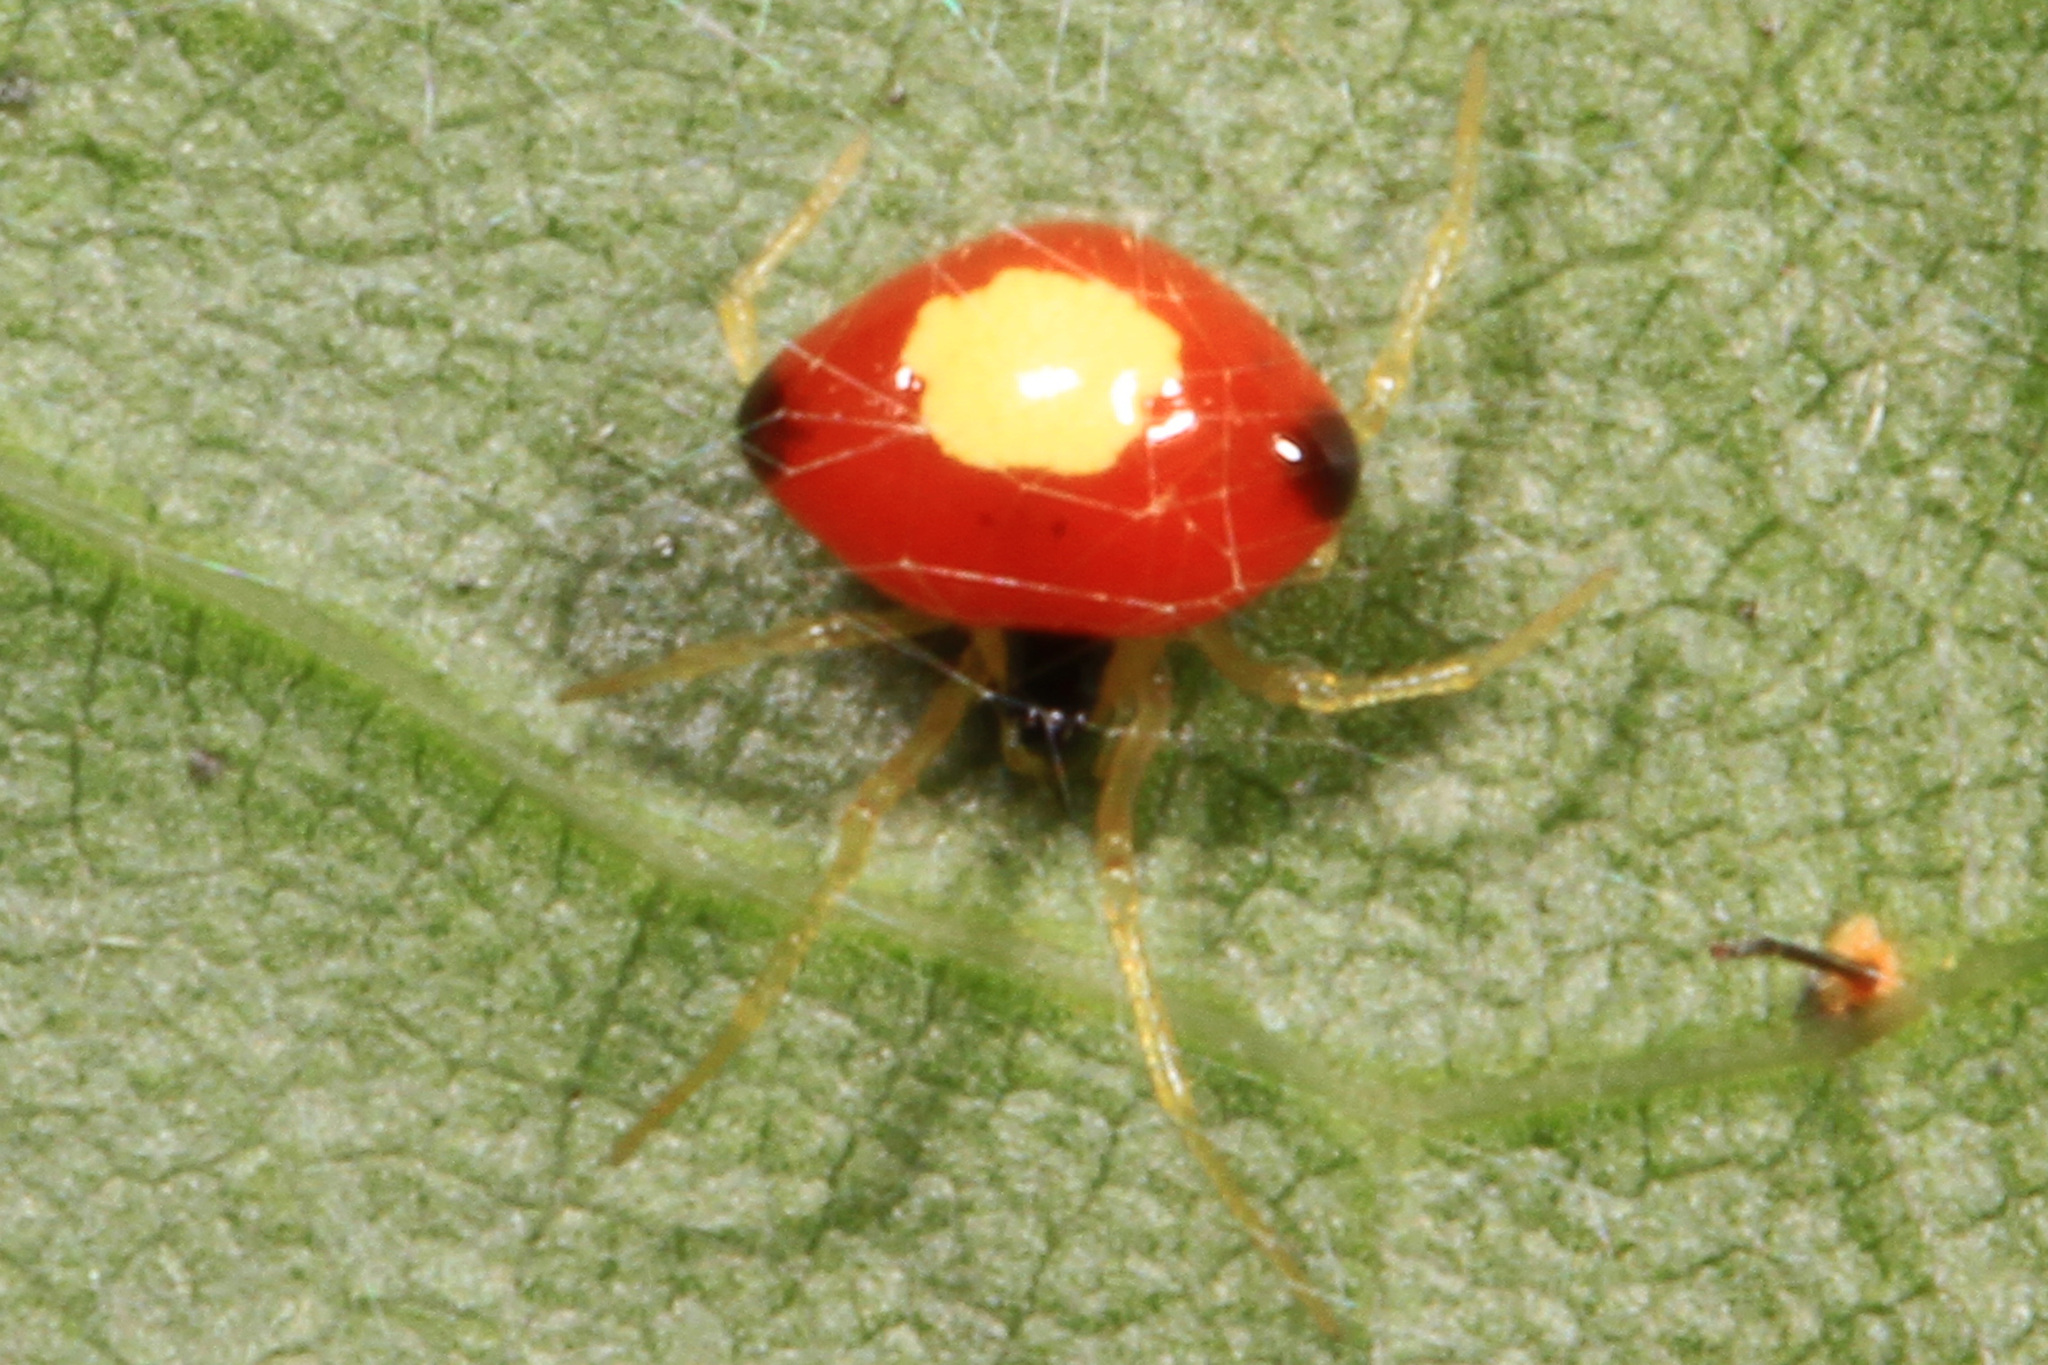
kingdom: Animalia
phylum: Arthropoda
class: Arachnida
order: Araneae
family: Theridiidae
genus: Theridula
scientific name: Theridula emertoni
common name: Emerton's bitubercled cobweaver
